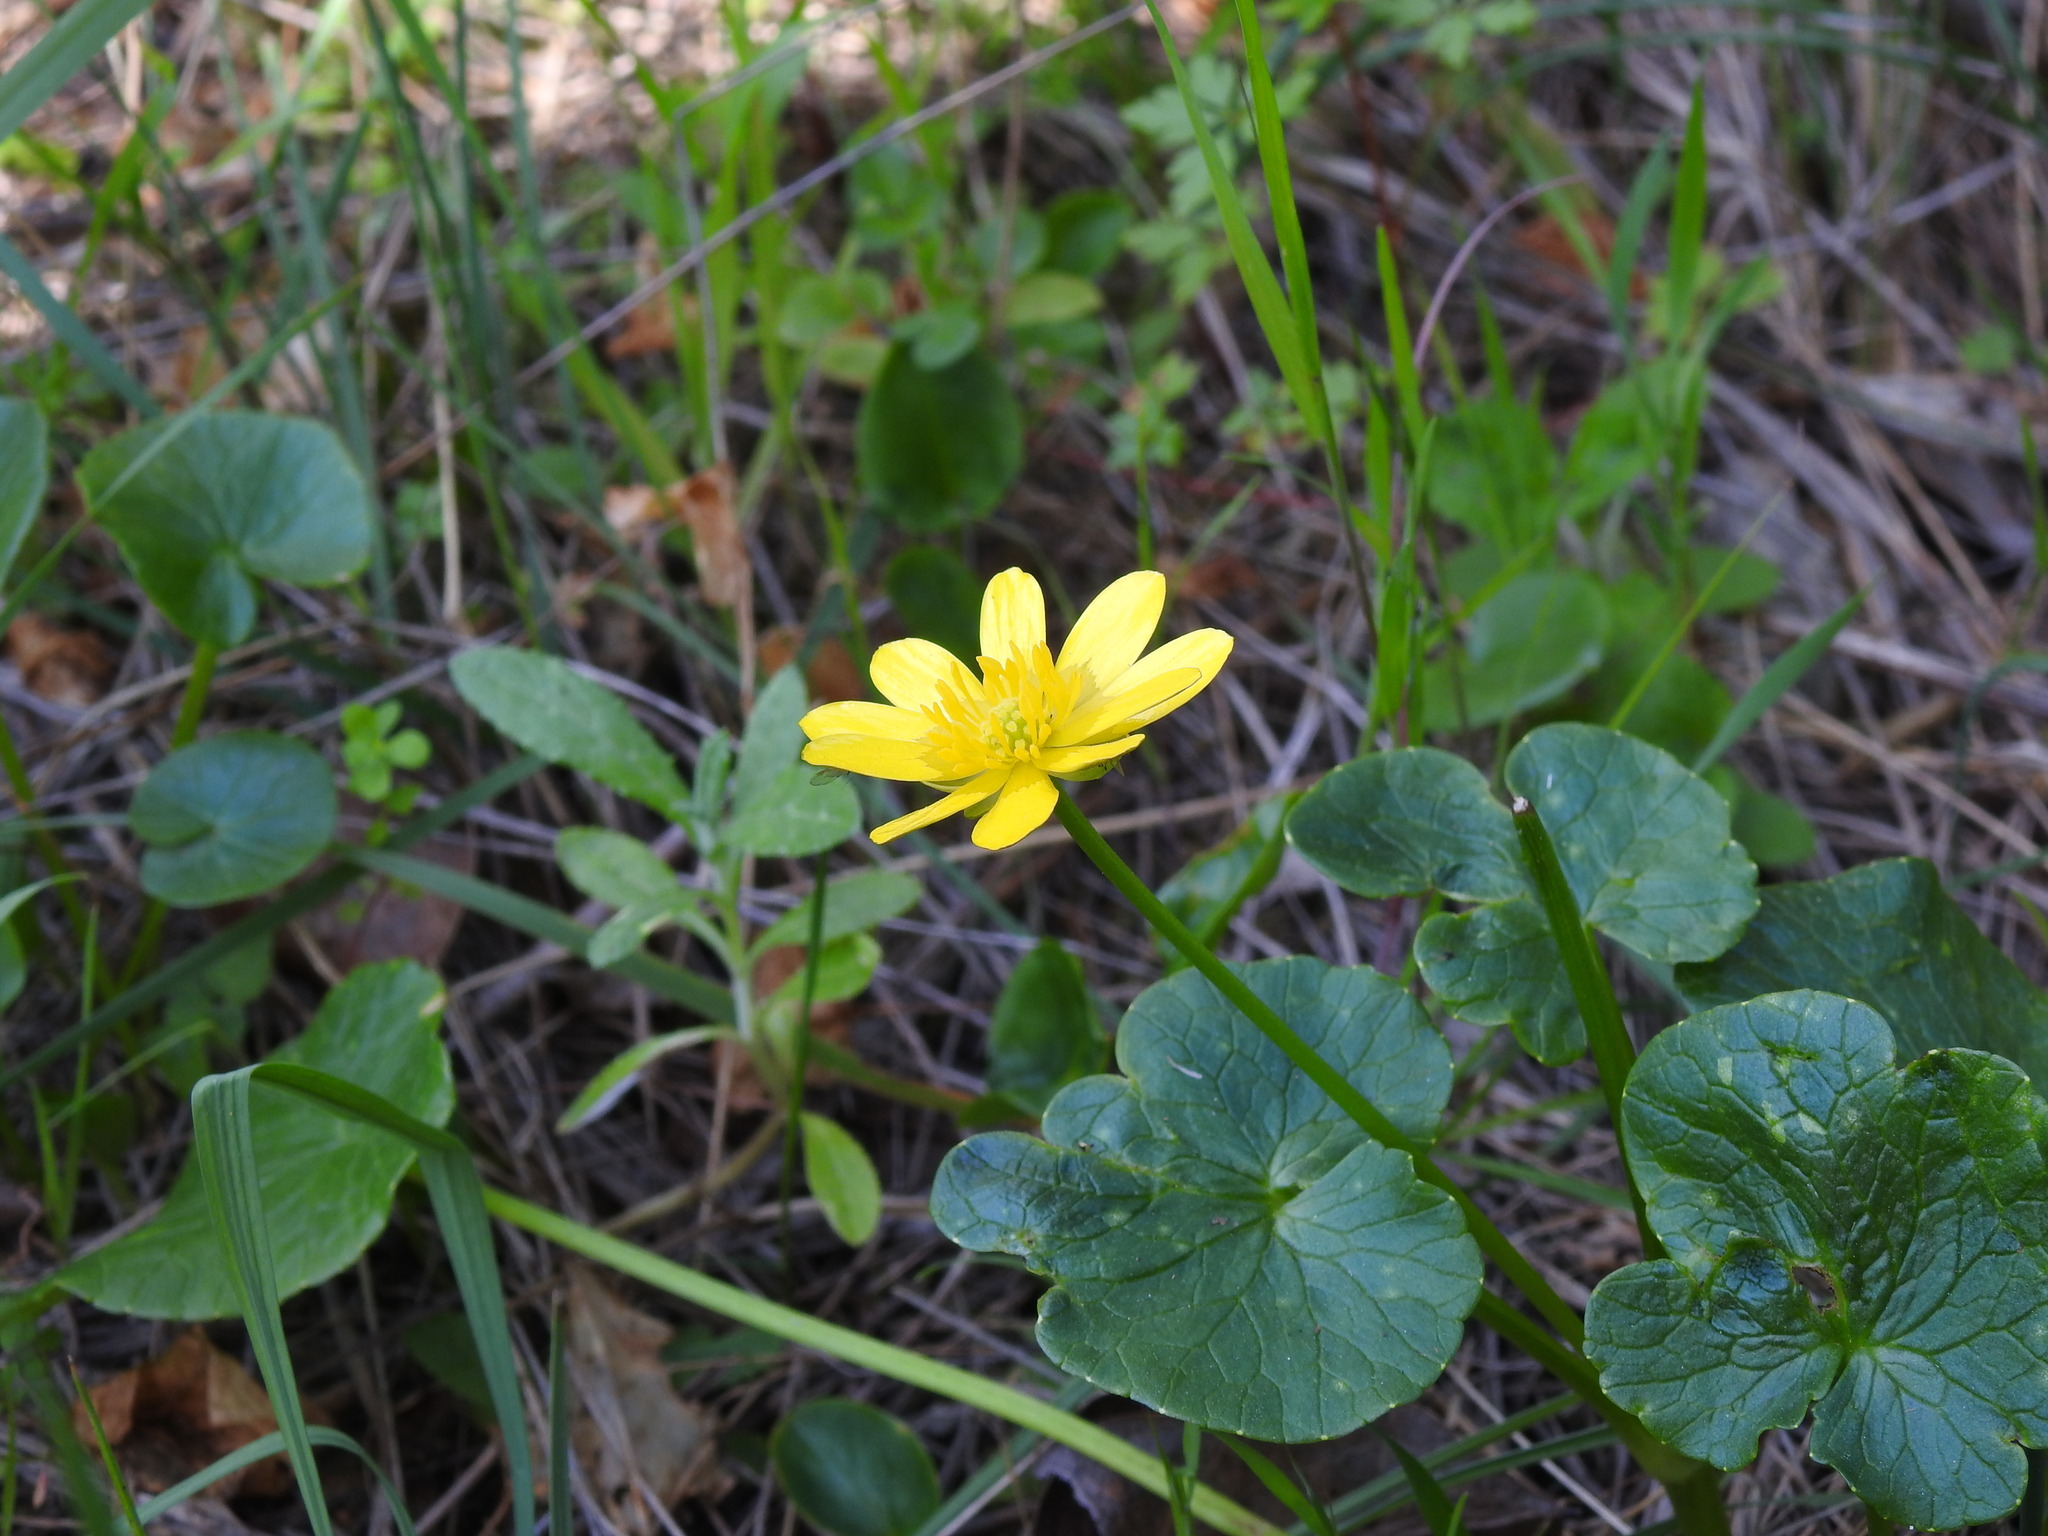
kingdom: Plantae
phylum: Tracheophyta
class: Magnoliopsida
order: Ranunculales
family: Ranunculaceae
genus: Ficaria
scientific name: Ficaria verna
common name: Lesser celandine
